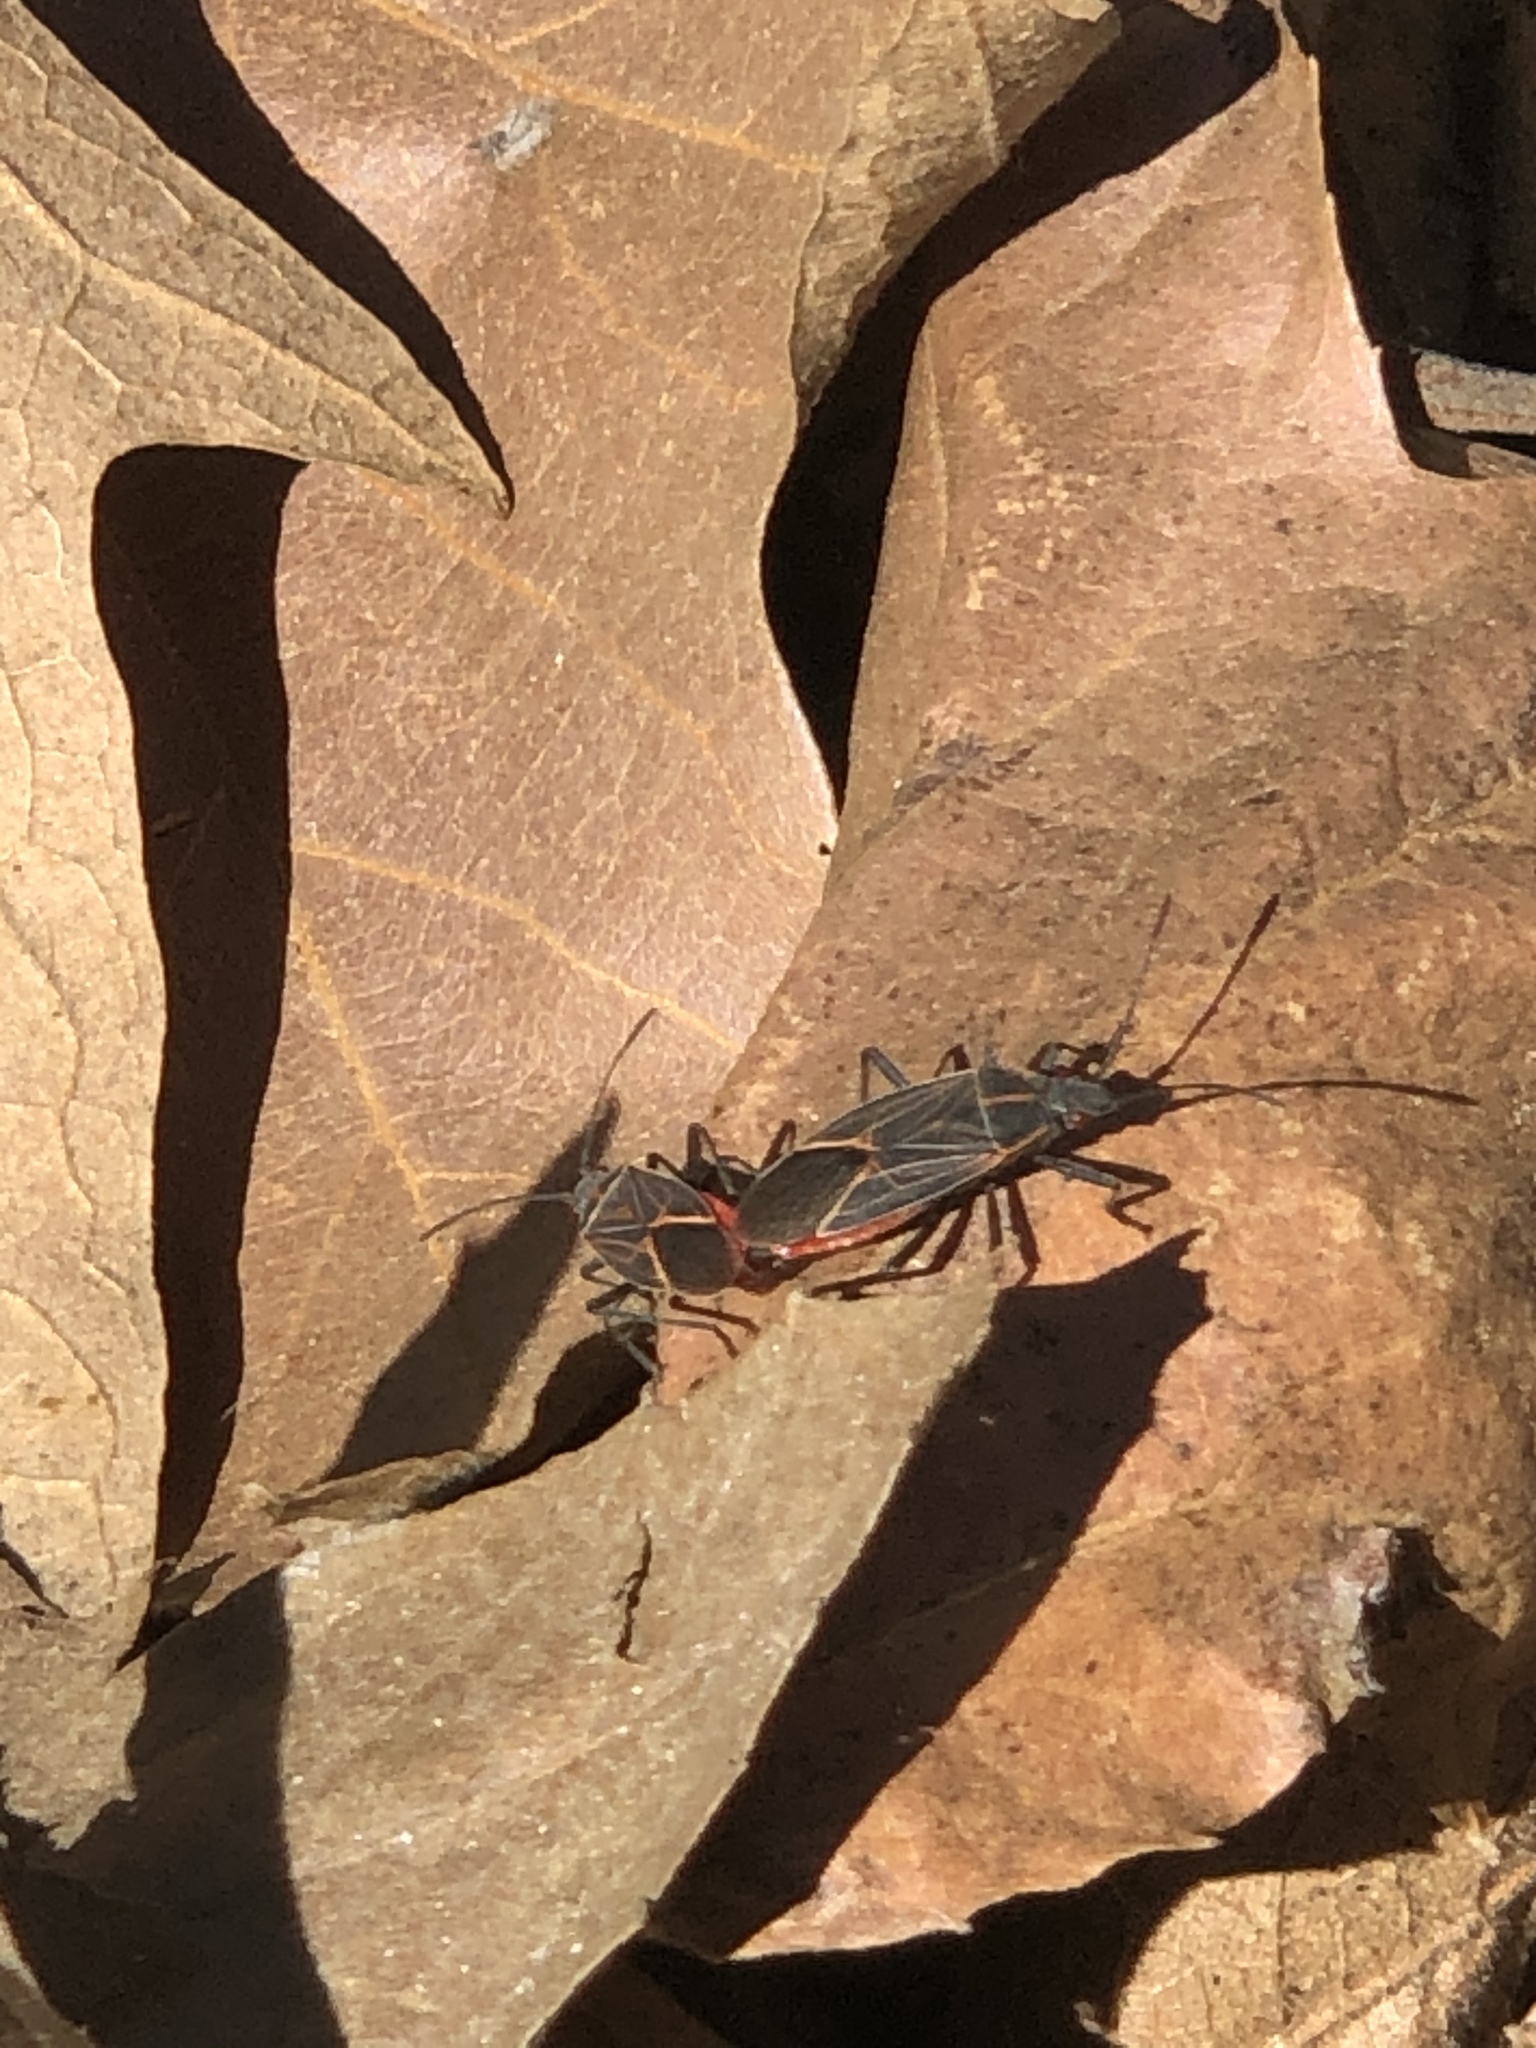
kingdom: Animalia
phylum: Arthropoda
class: Insecta
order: Hemiptera
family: Rhopalidae
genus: Boisea
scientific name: Boisea rubrolineata
